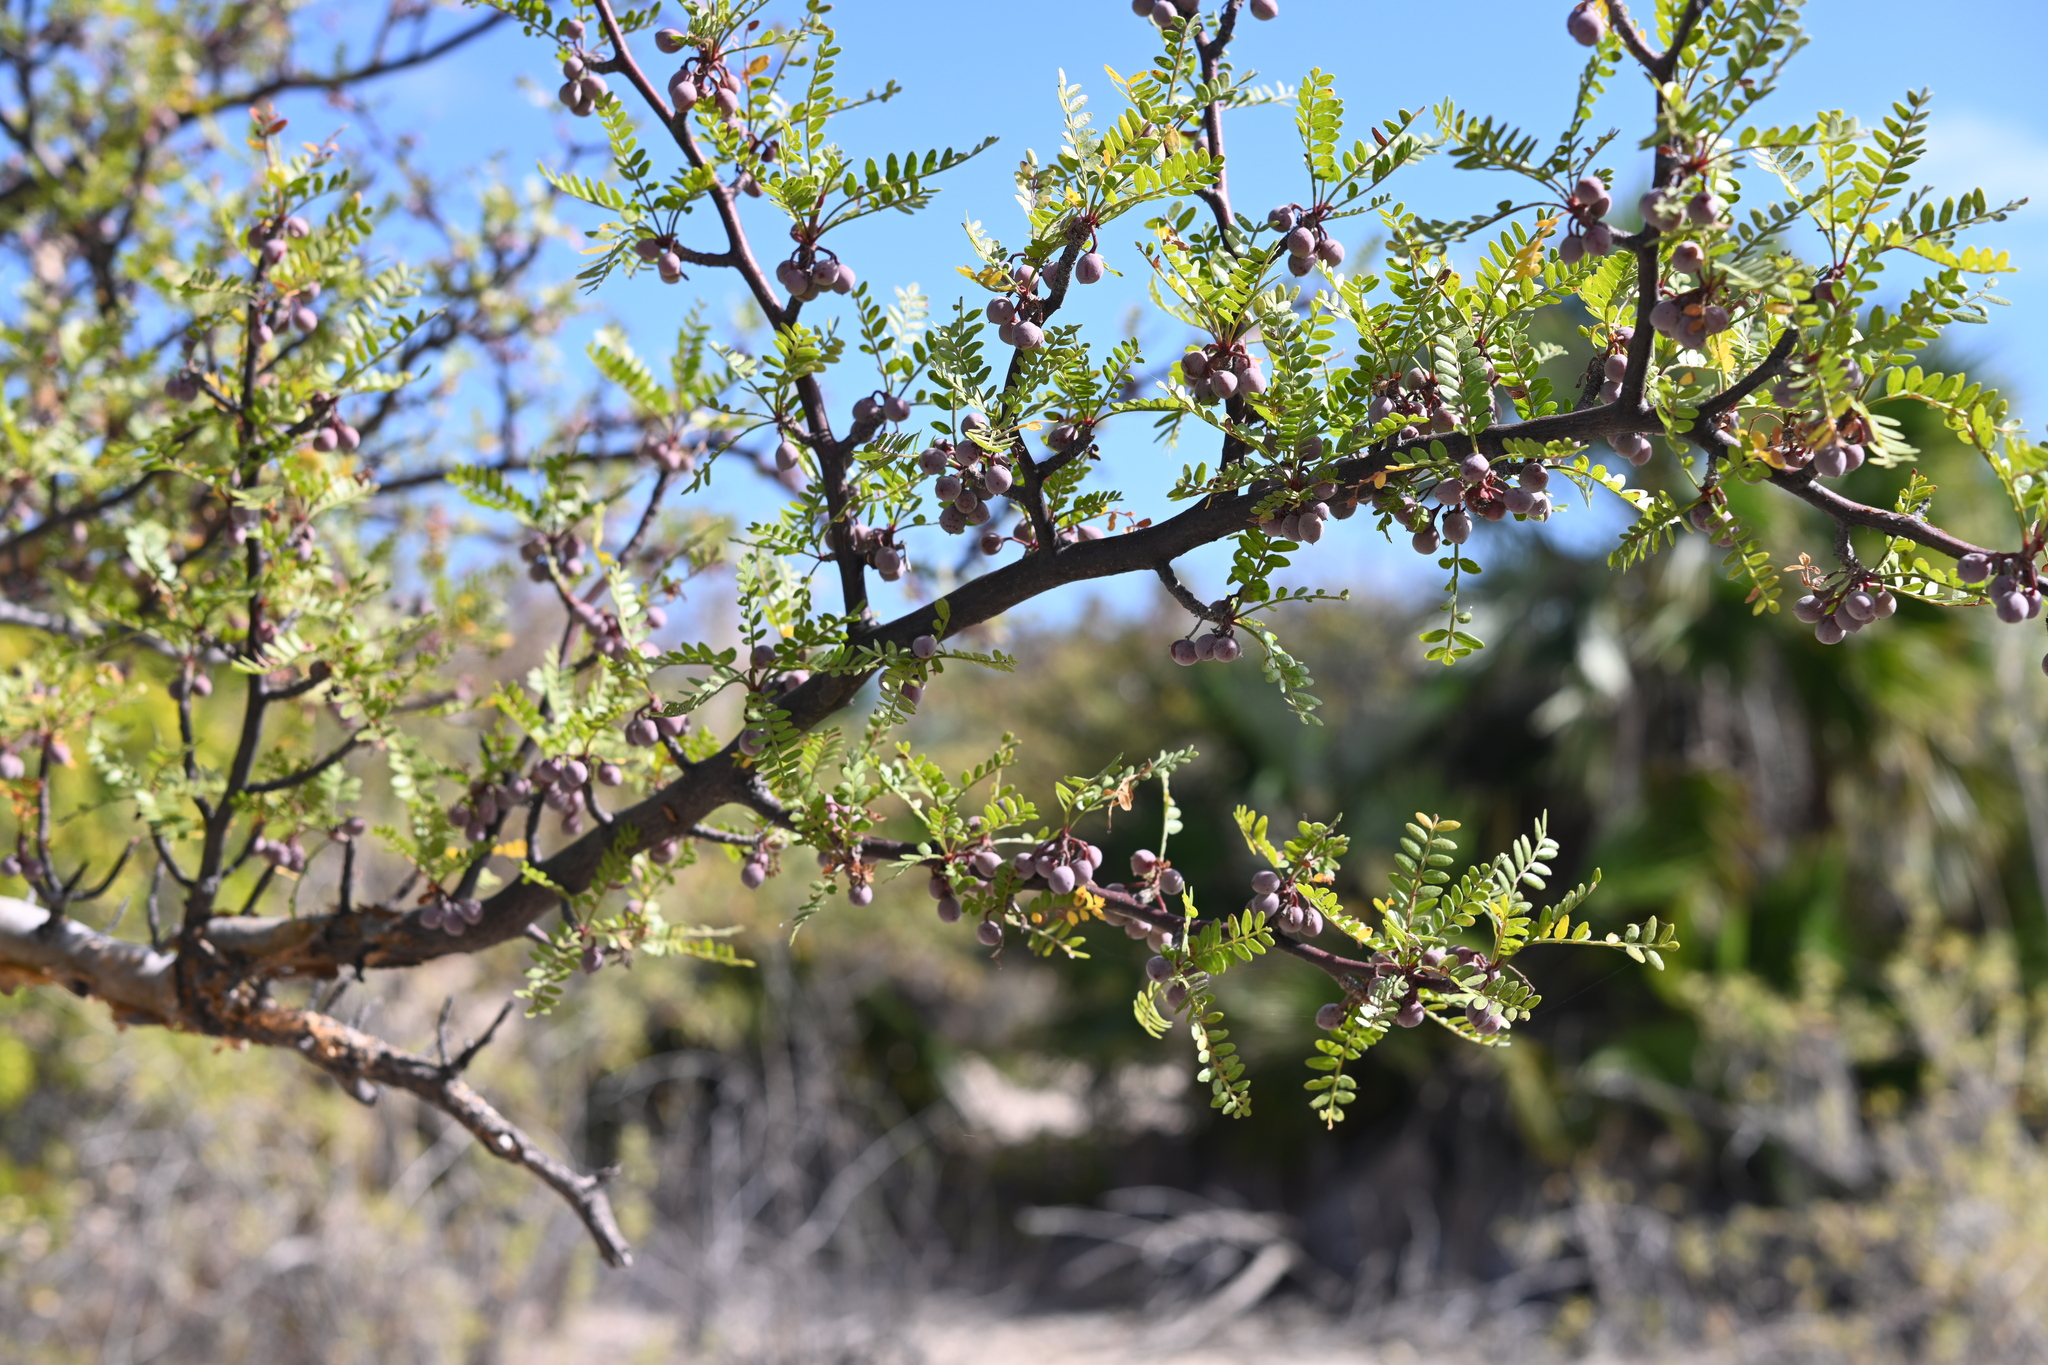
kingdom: Plantae
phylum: Tracheophyta
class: Magnoliopsida
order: Sapindales
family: Burseraceae
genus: Bursera
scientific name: Bursera microphylla
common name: Elephant tree
